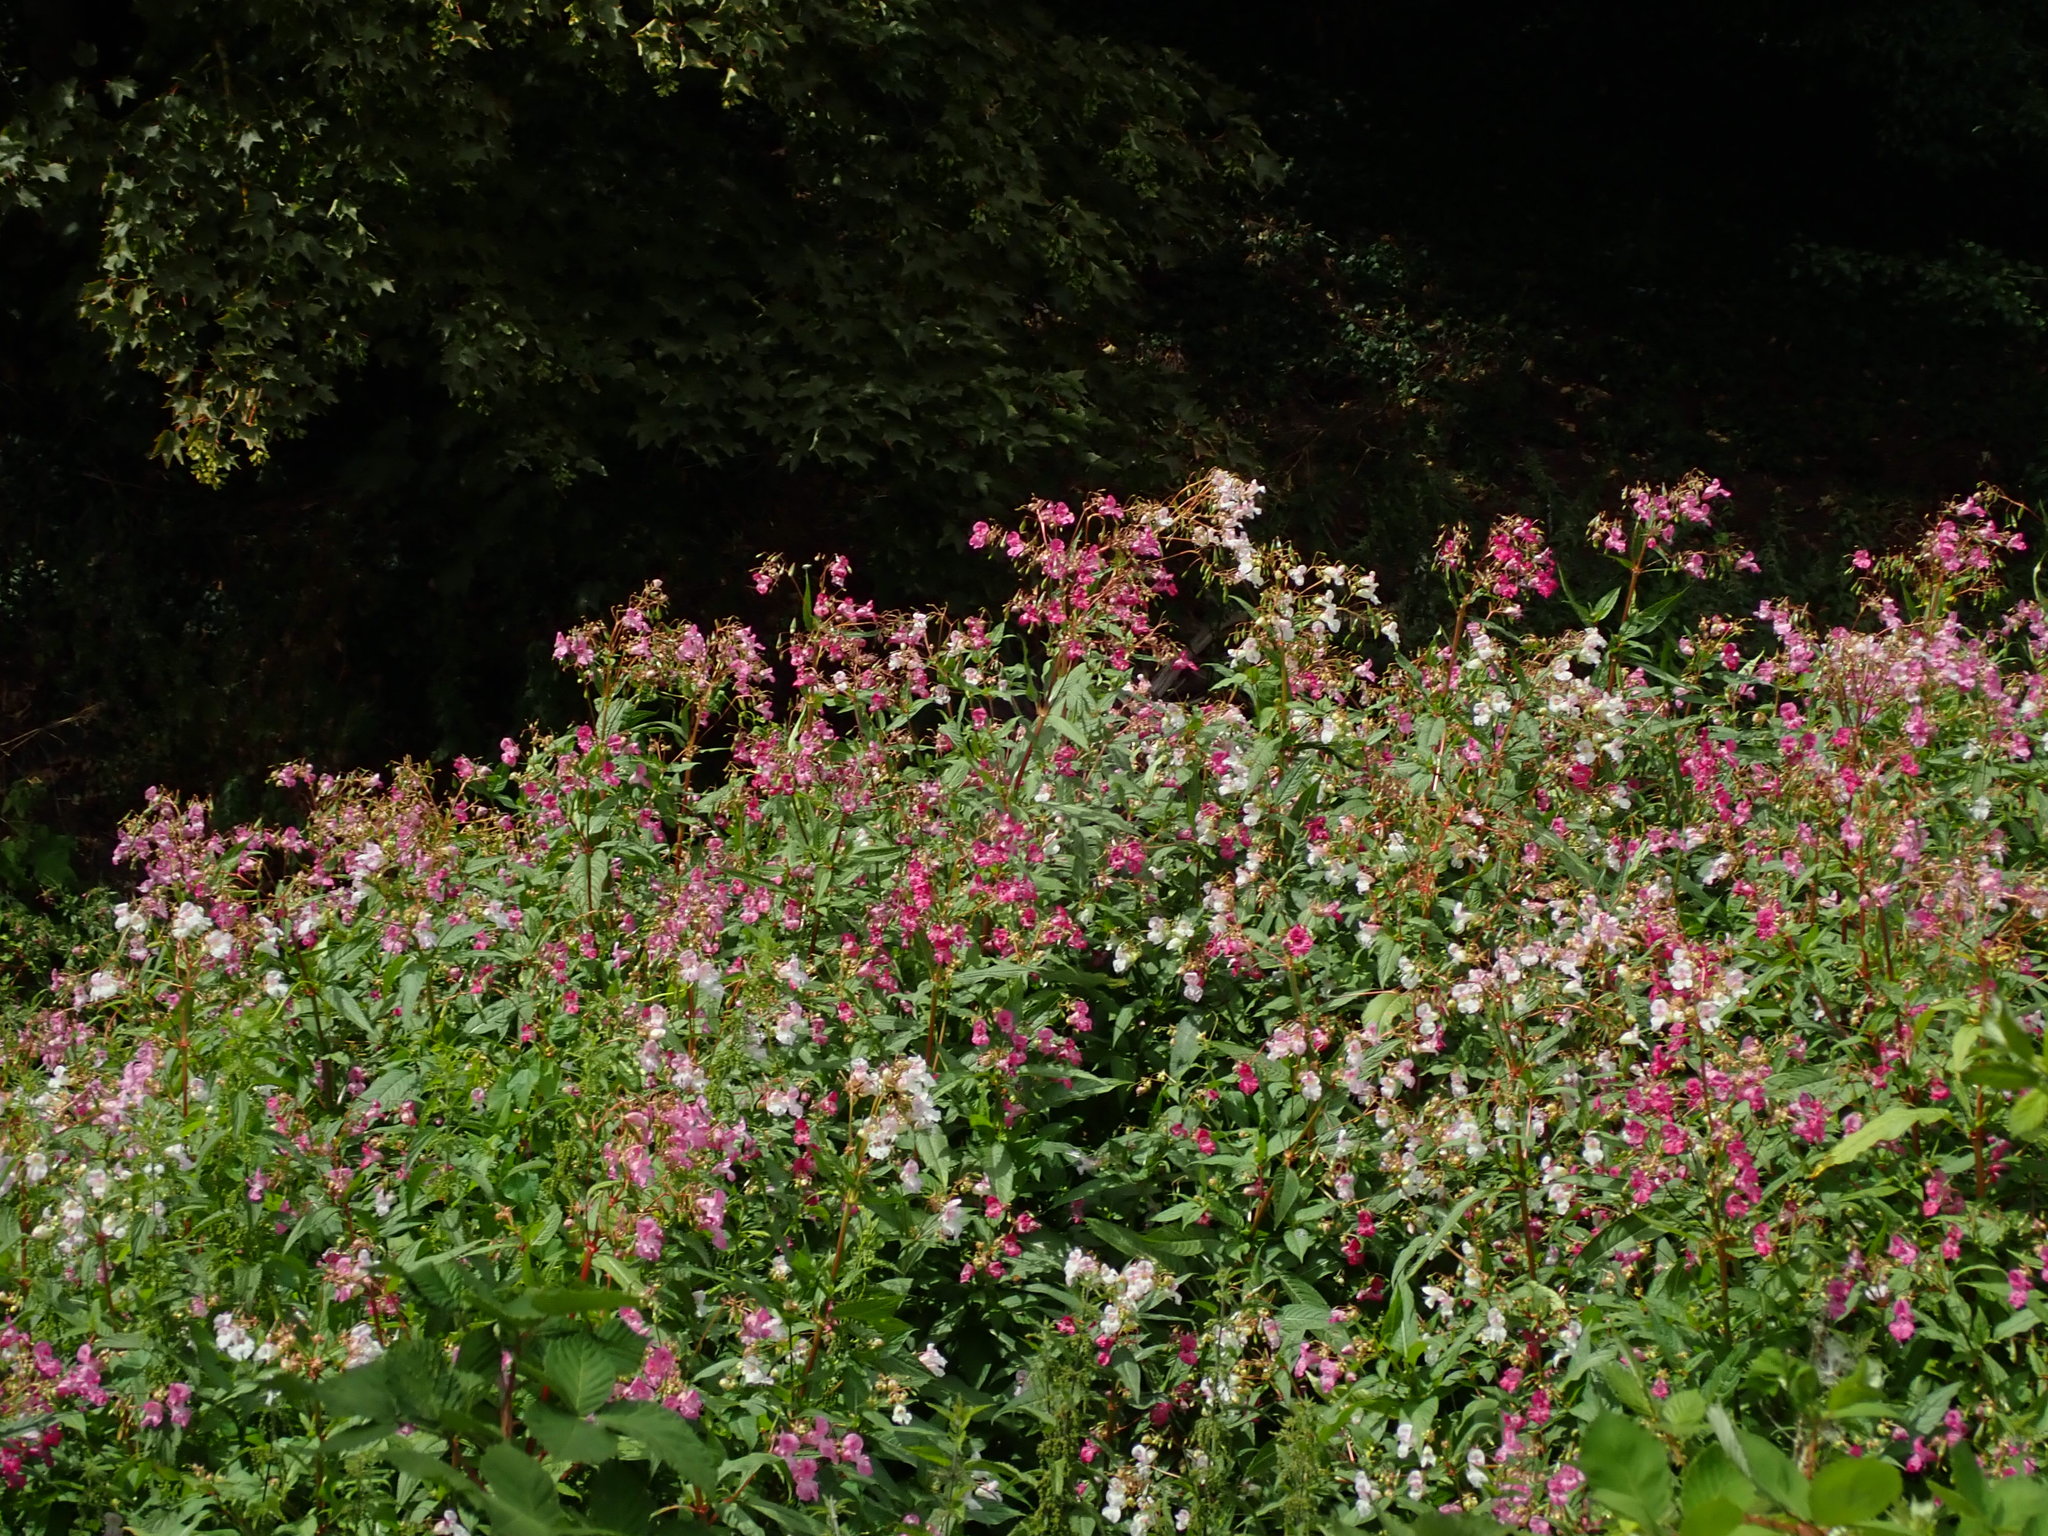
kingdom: Plantae
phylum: Tracheophyta
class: Magnoliopsida
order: Ericales
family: Balsaminaceae
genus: Impatiens
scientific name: Impatiens glandulifera
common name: Himalayan balsam
